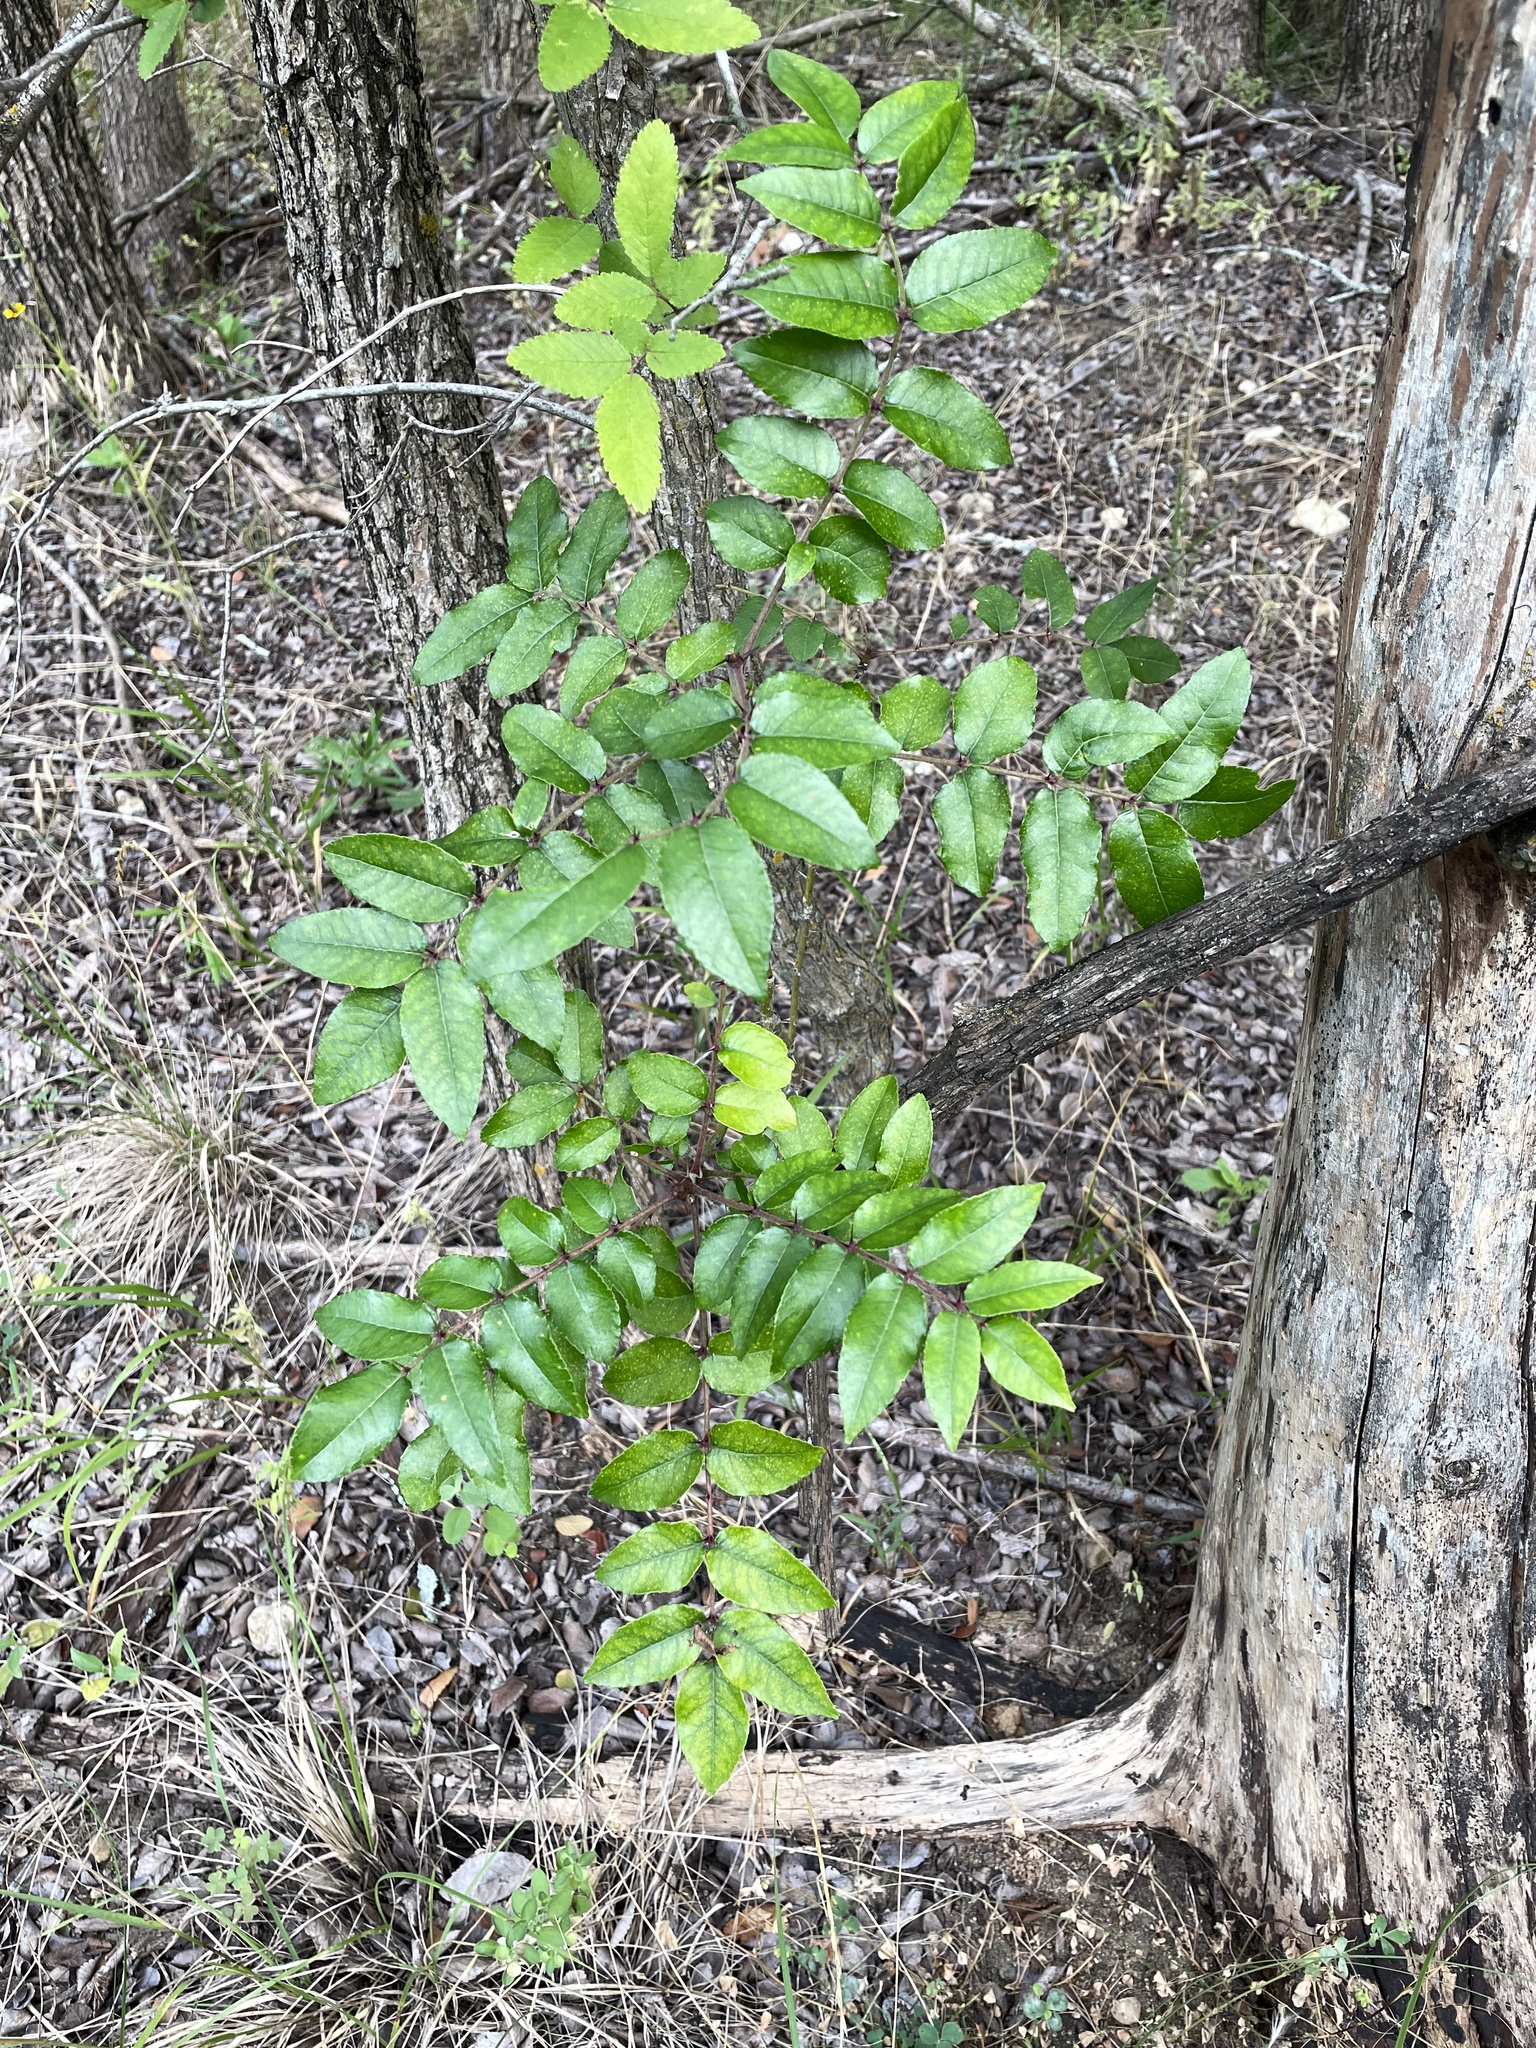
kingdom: Plantae
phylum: Tracheophyta
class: Magnoliopsida
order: Sapindales
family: Rutaceae
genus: Zanthoxylum
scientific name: Zanthoxylum clava-herculis
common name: Hercules'-club
